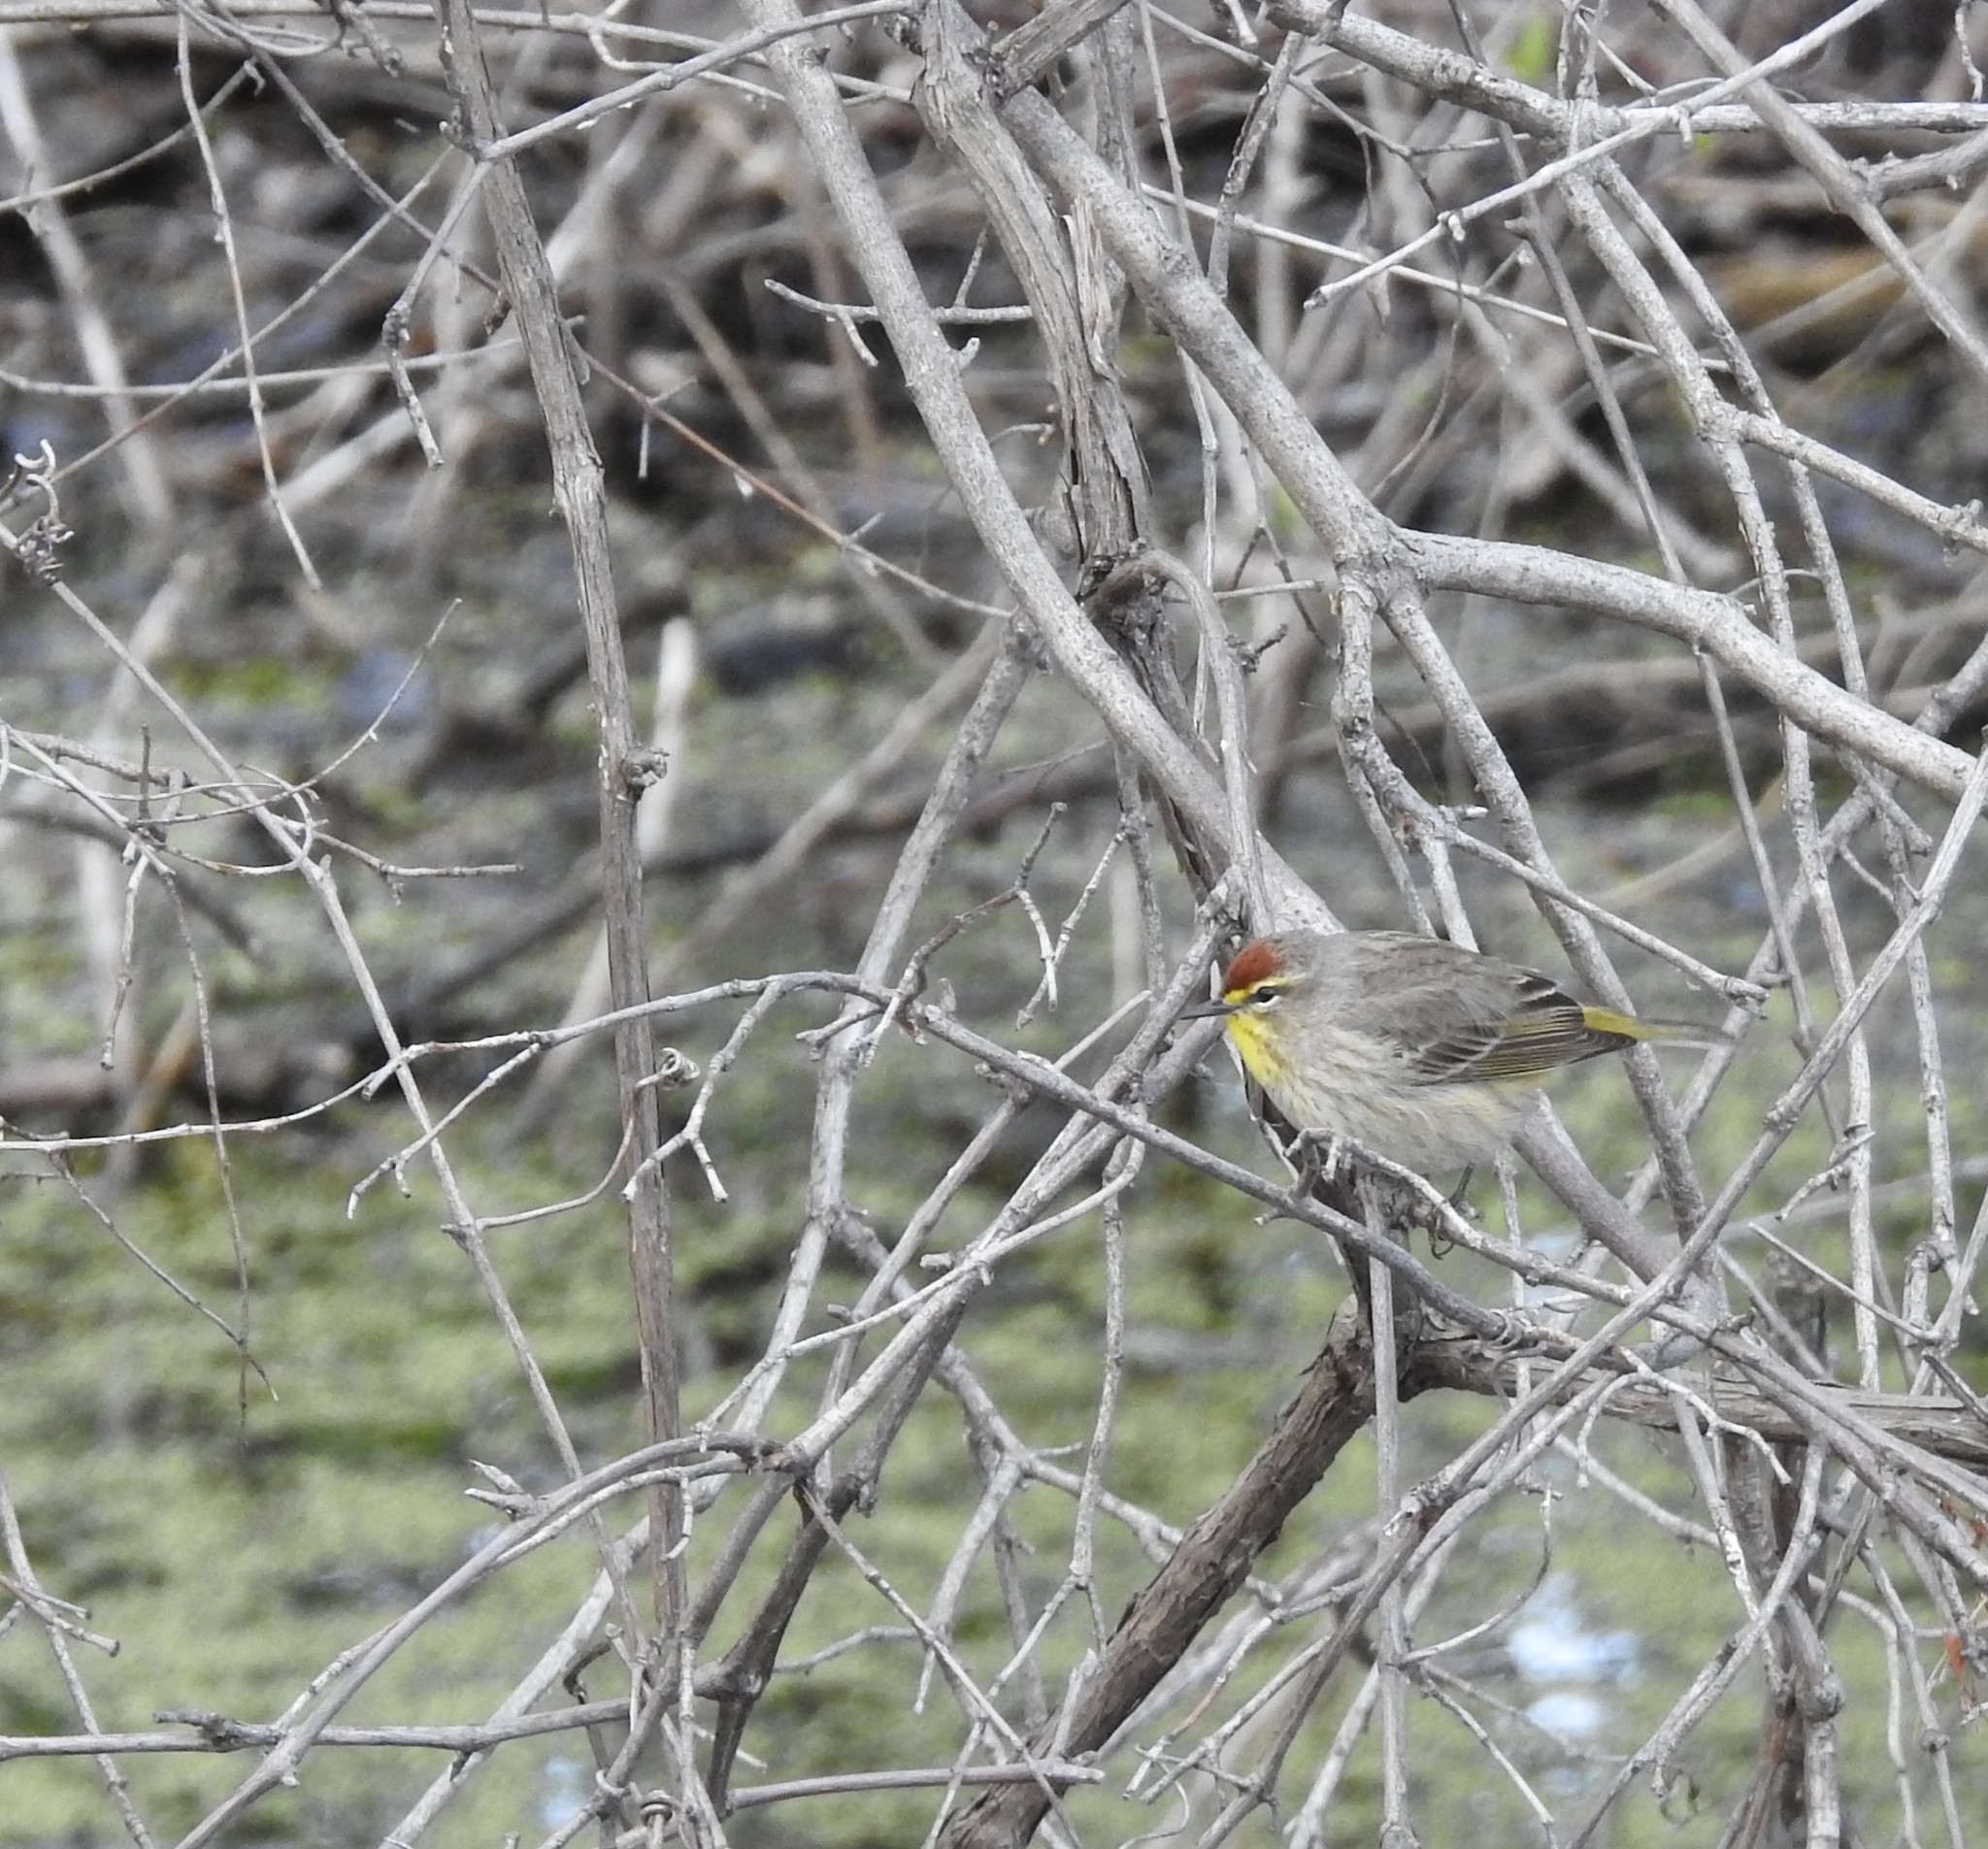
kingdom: Animalia
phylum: Chordata
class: Aves
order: Passeriformes
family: Parulidae
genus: Setophaga
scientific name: Setophaga palmarum
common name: Palm warbler
